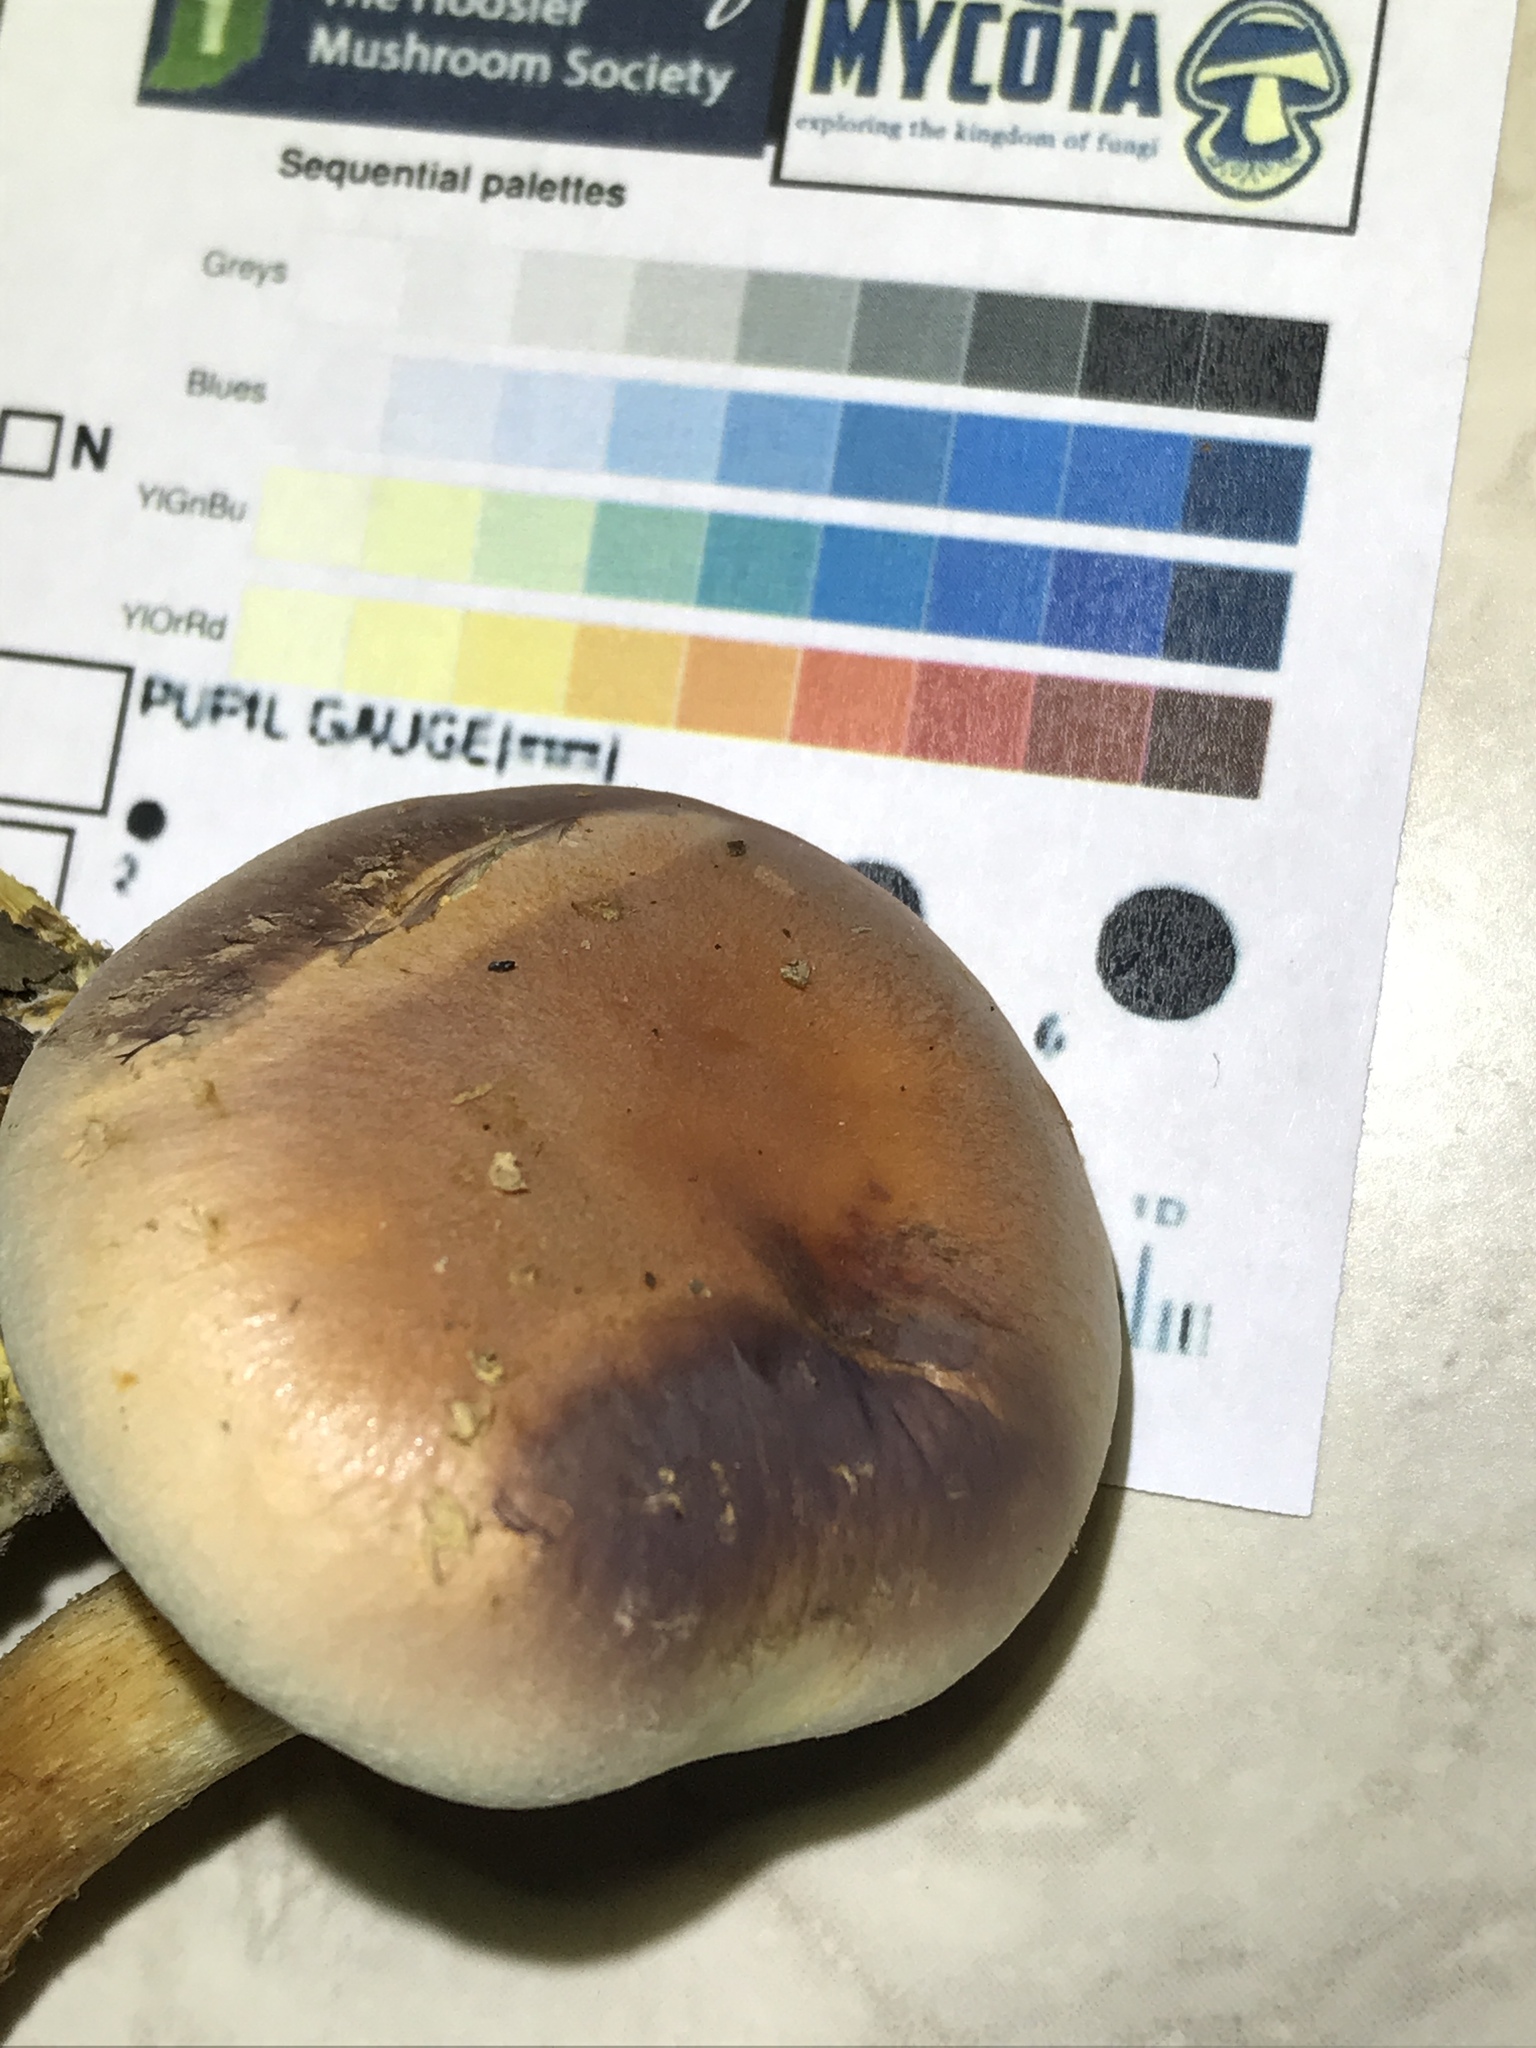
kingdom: Fungi
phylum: Basidiomycota
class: Agaricomycetes
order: Agaricales
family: Strophariaceae
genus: Hypholoma
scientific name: Hypholoma lateritium
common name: Brick caps
